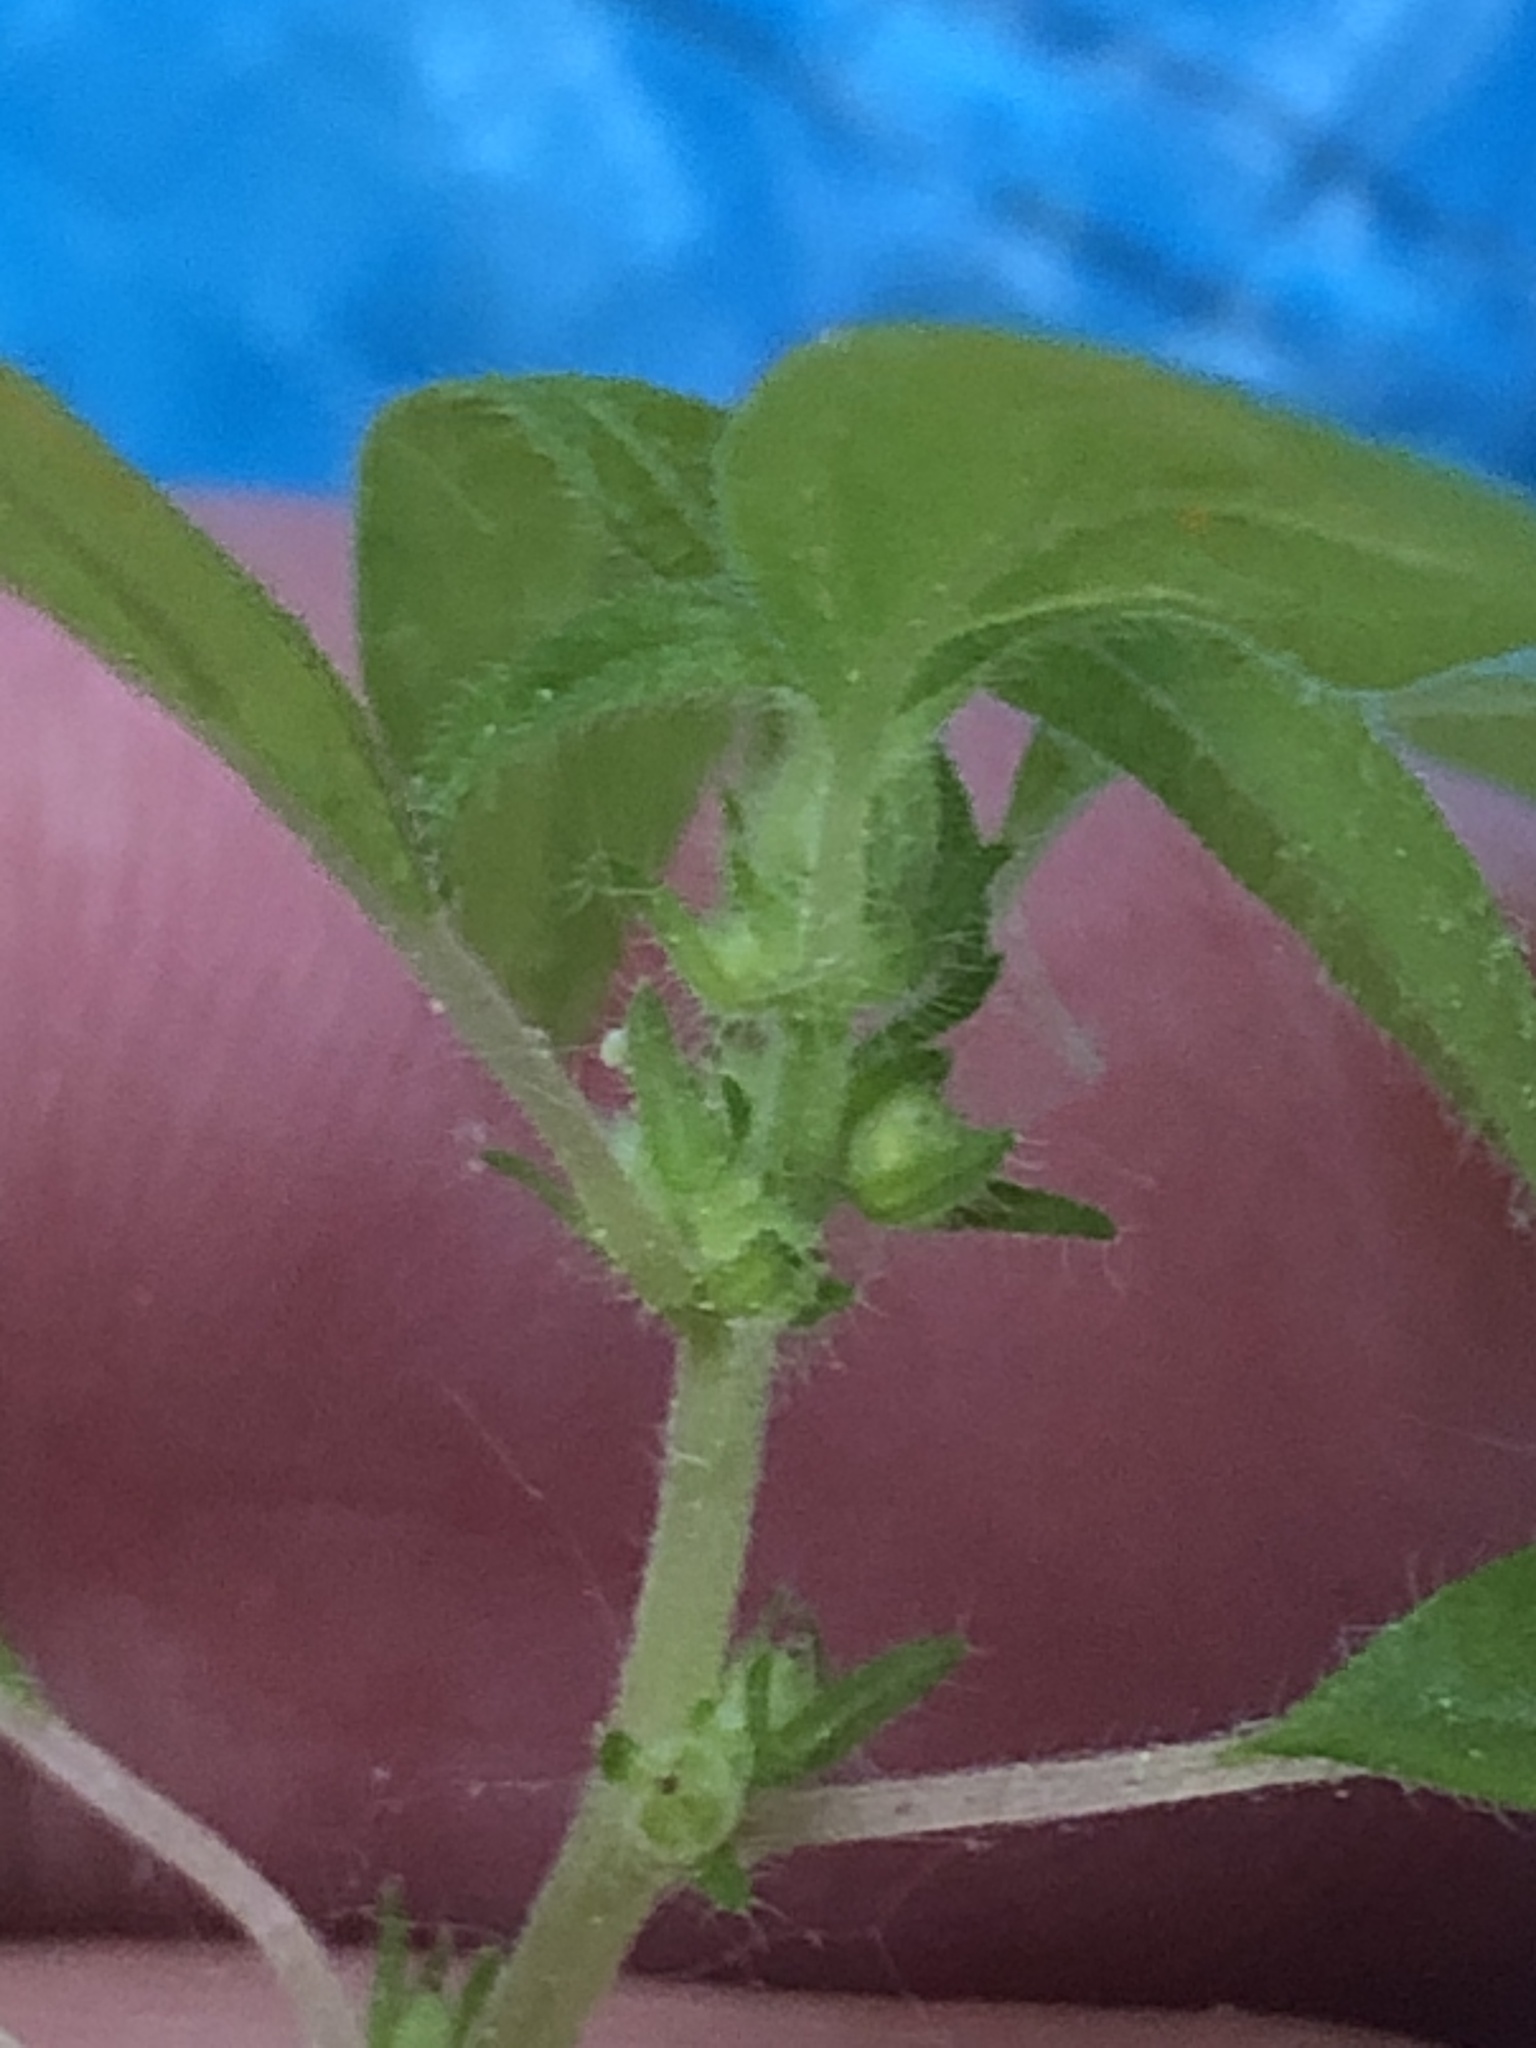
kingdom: Plantae
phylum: Tracheophyta
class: Magnoliopsida
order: Rosales
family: Urticaceae
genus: Parietaria
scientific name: Parietaria pensylvanica
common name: Pennsylvania pellitory
